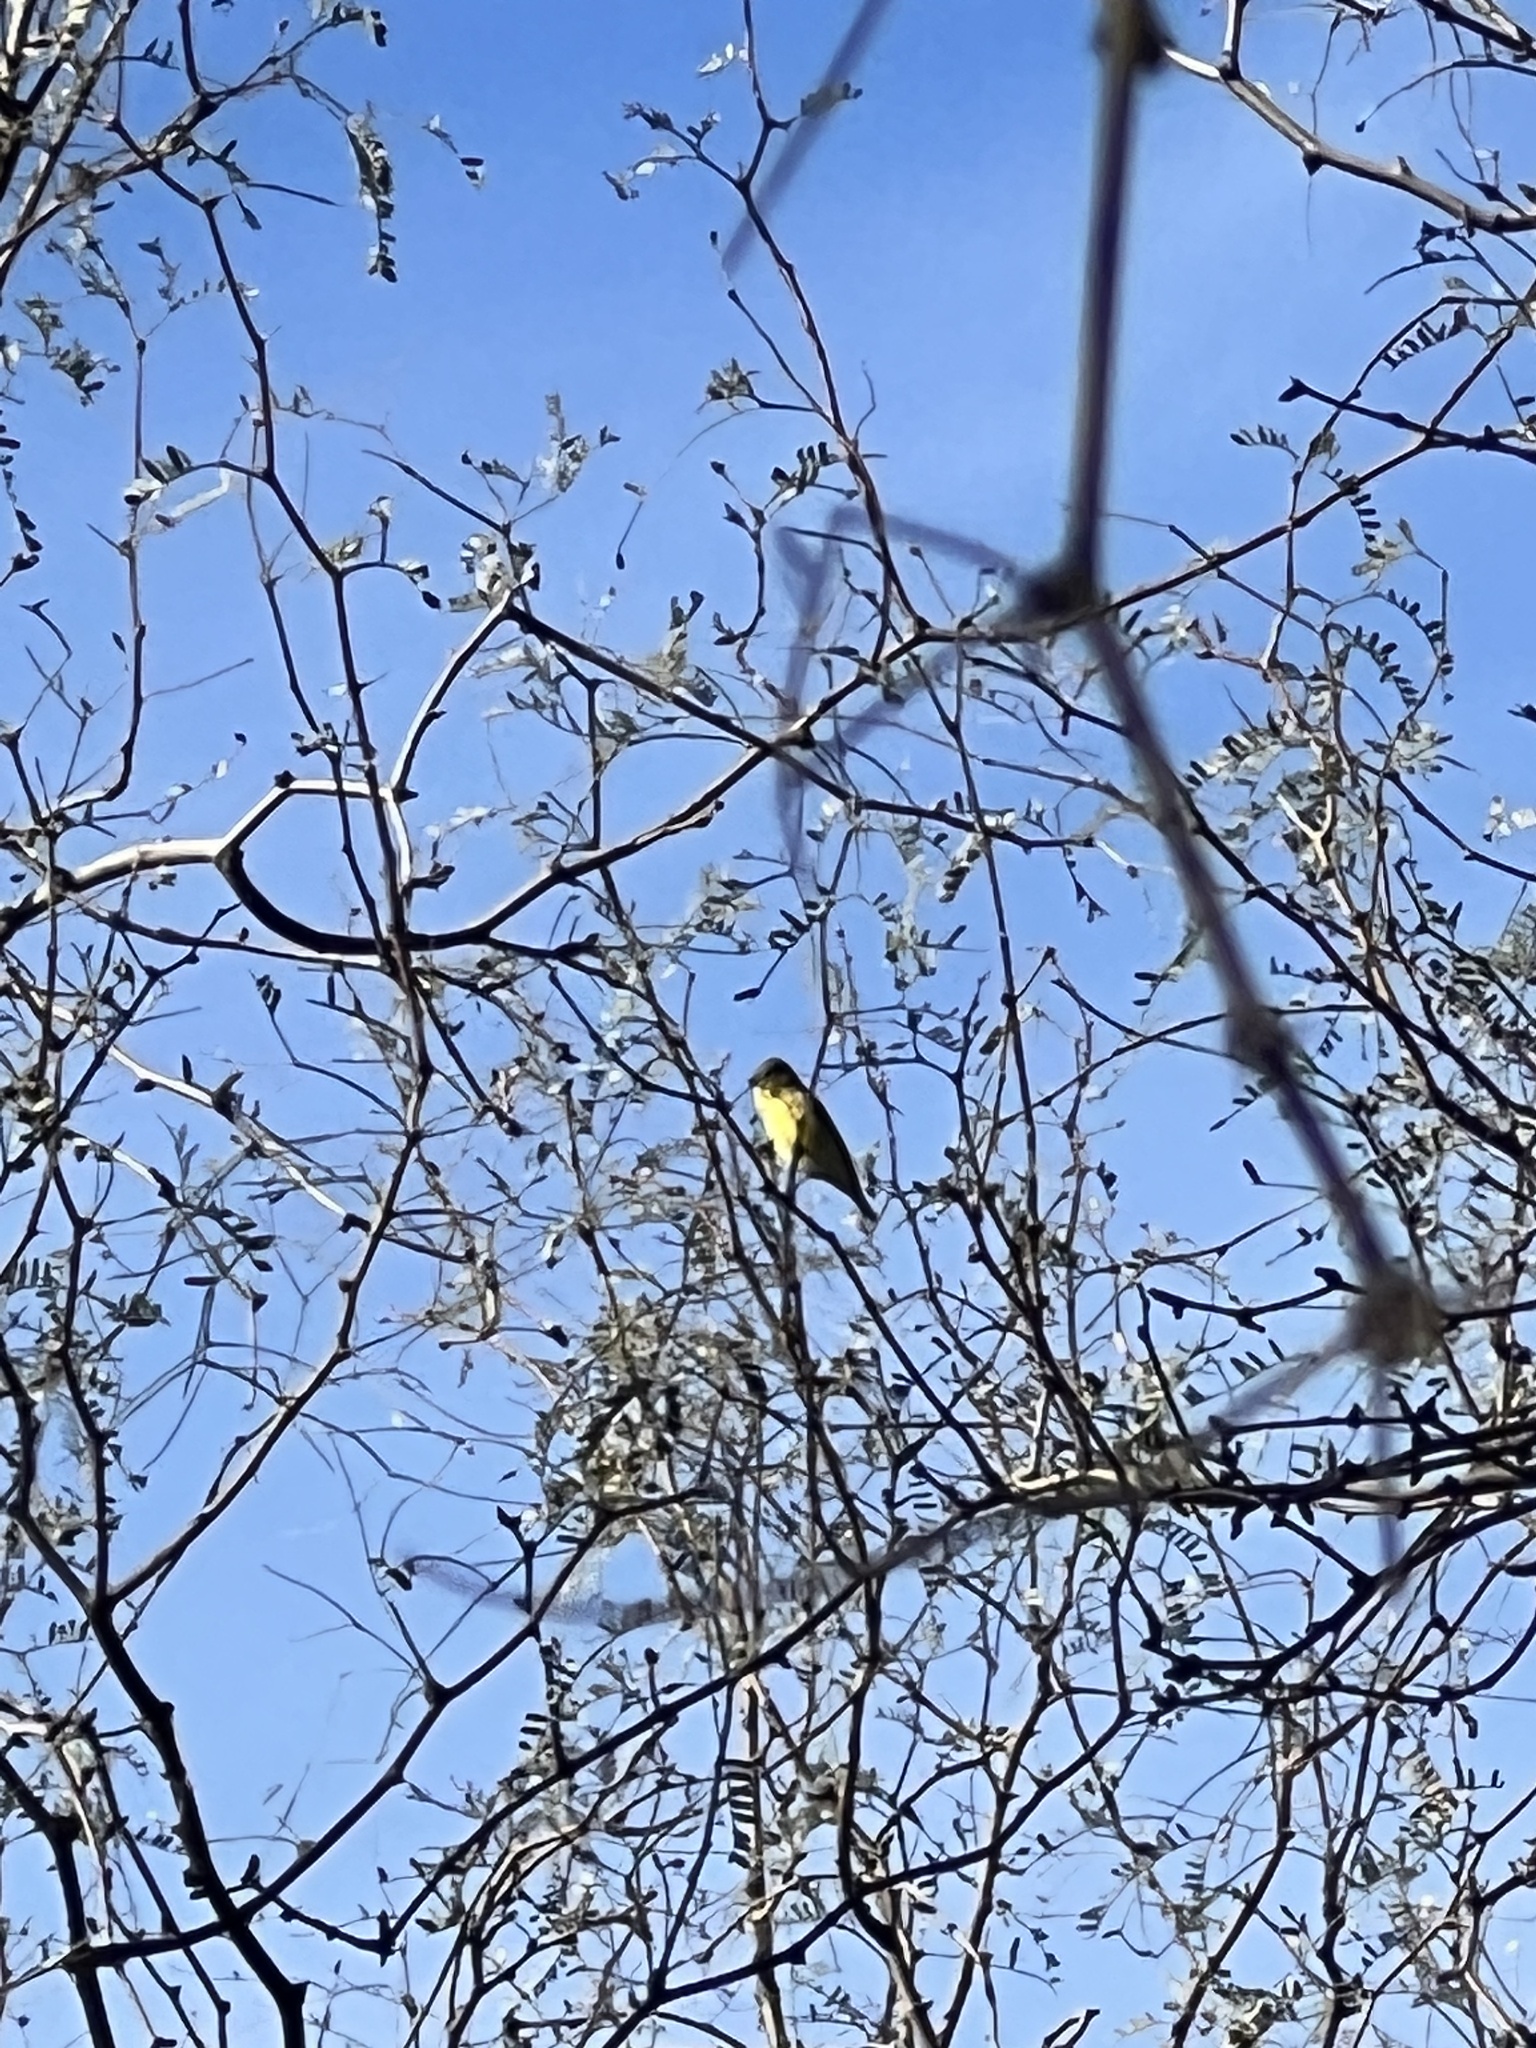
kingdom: Animalia
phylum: Chordata
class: Aves
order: Passeriformes
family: Fringillidae
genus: Spinus
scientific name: Spinus psaltria
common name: Lesser goldfinch
